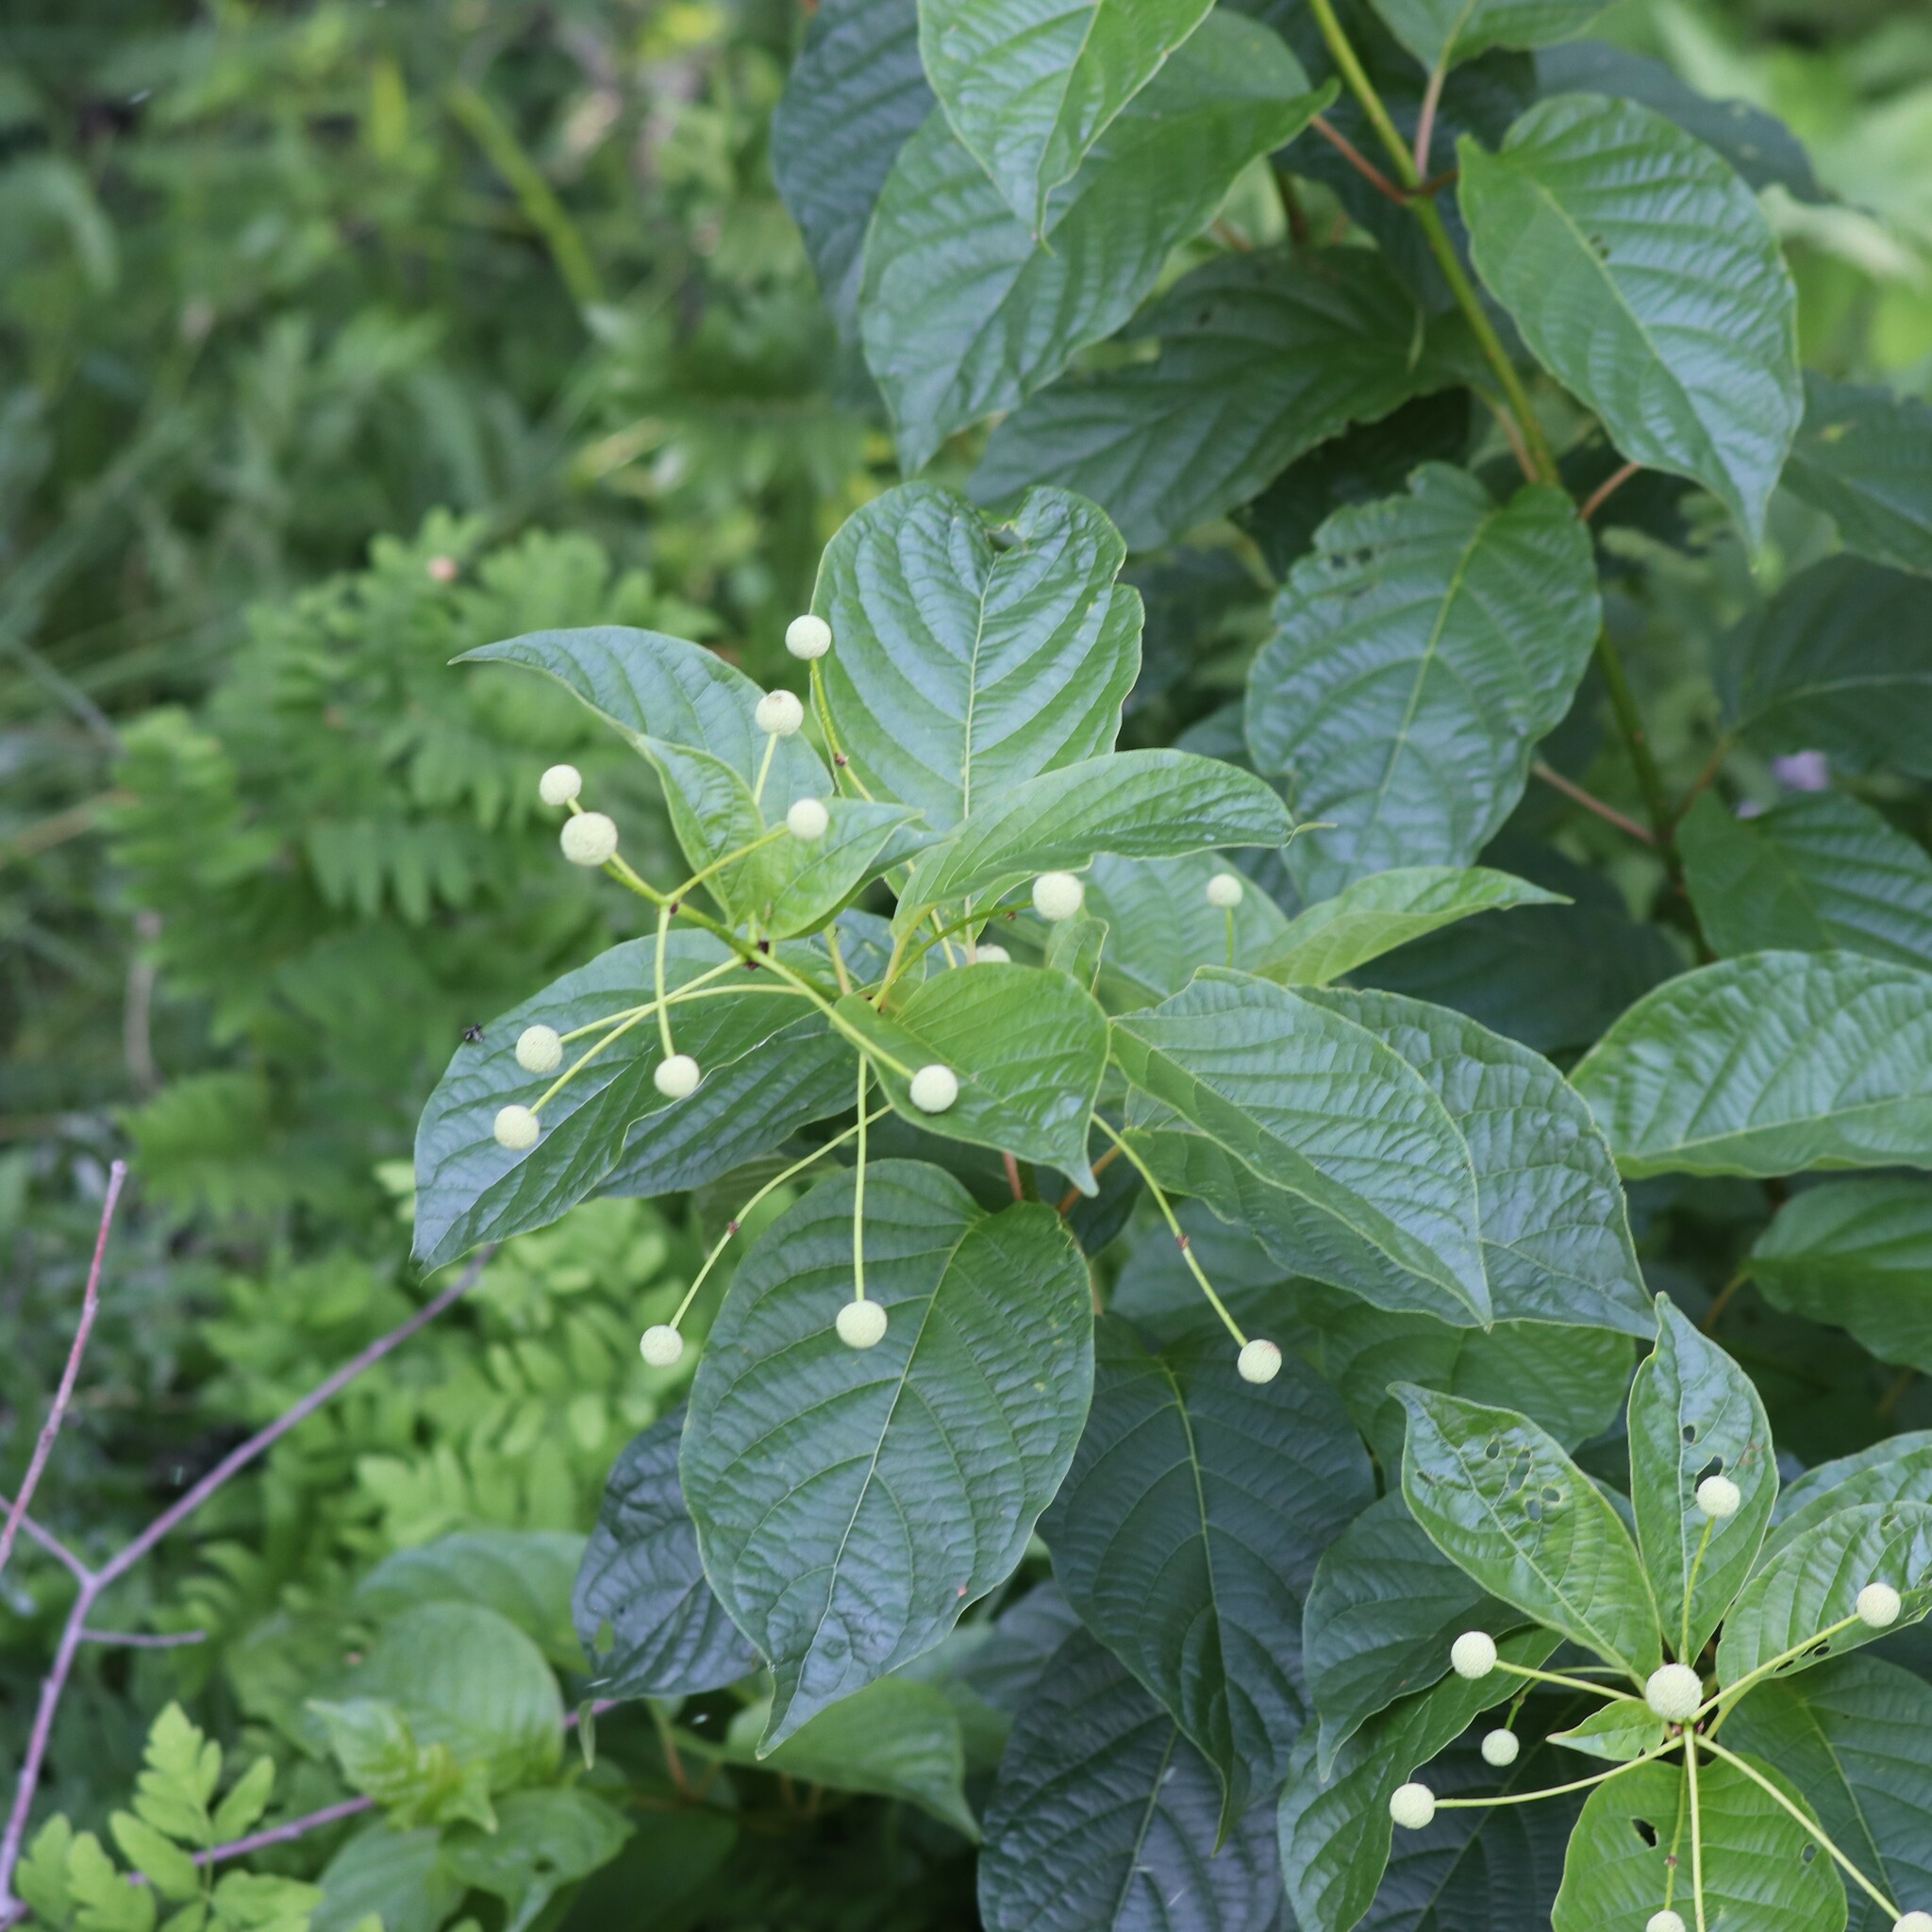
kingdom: Plantae
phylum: Tracheophyta
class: Magnoliopsida
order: Gentianales
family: Rubiaceae
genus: Cephalanthus
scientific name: Cephalanthus occidentalis
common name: Button-willow
